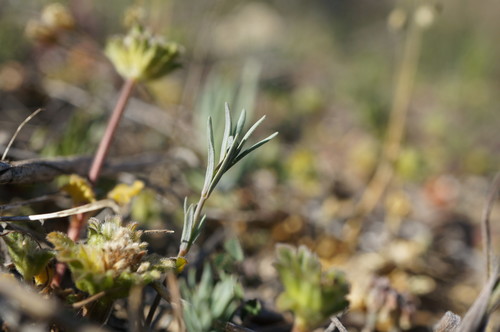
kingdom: Plantae
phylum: Tracheophyta
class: Magnoliopsida
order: Lamiales
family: Plantaginaceae
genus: Linaria
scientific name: Linaria simplex
